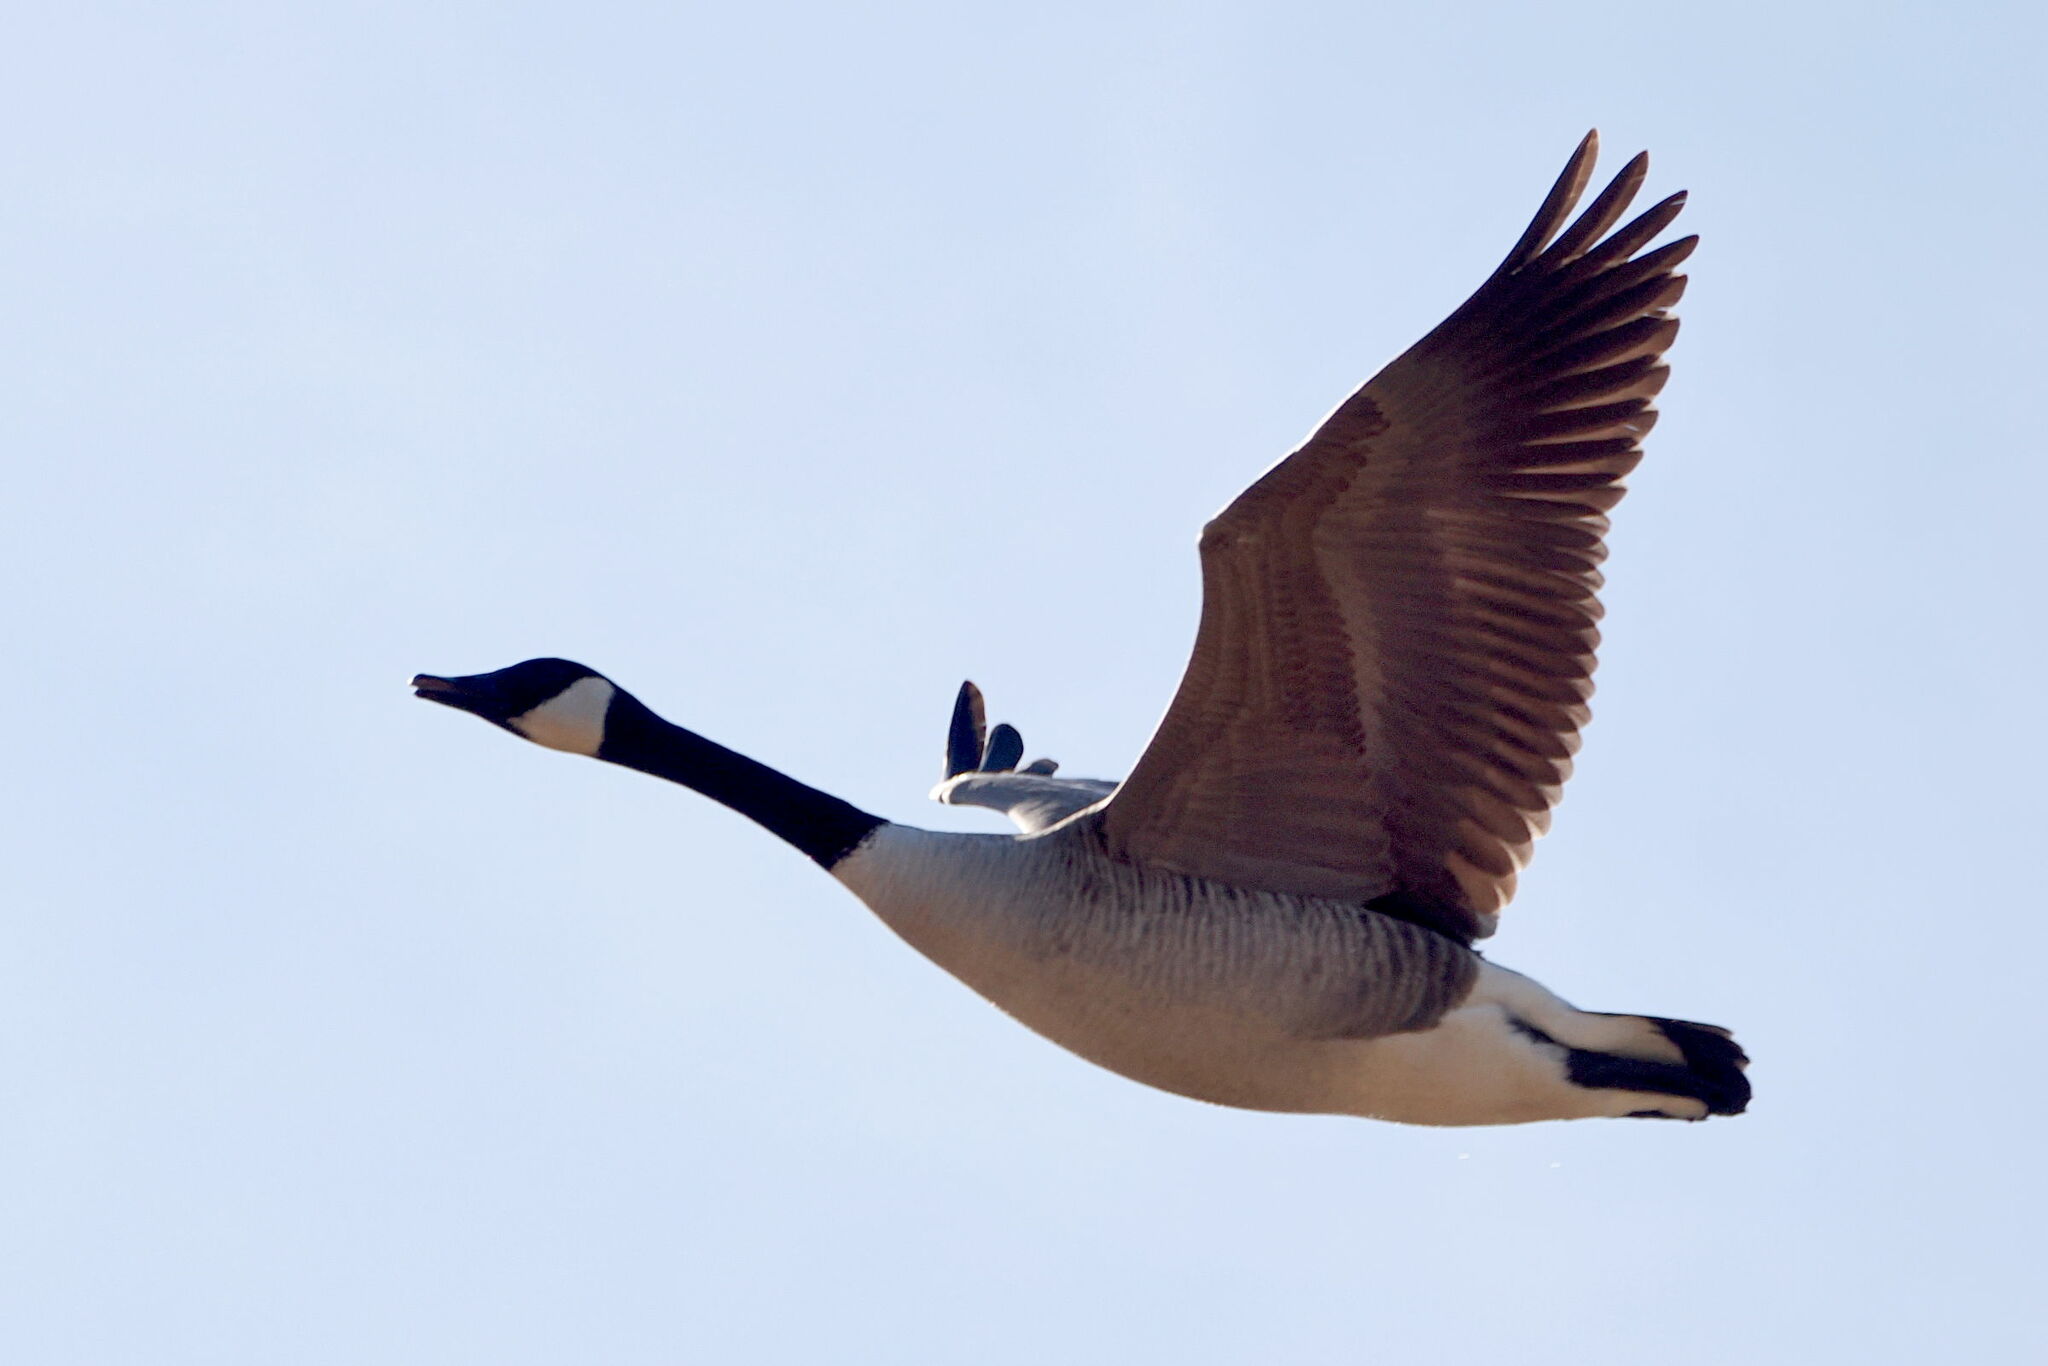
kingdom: Animalia
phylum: Chordata
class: Aves
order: Anseriformes
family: Anatidae
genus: Branta
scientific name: Branta canadensis
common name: Canada goose
